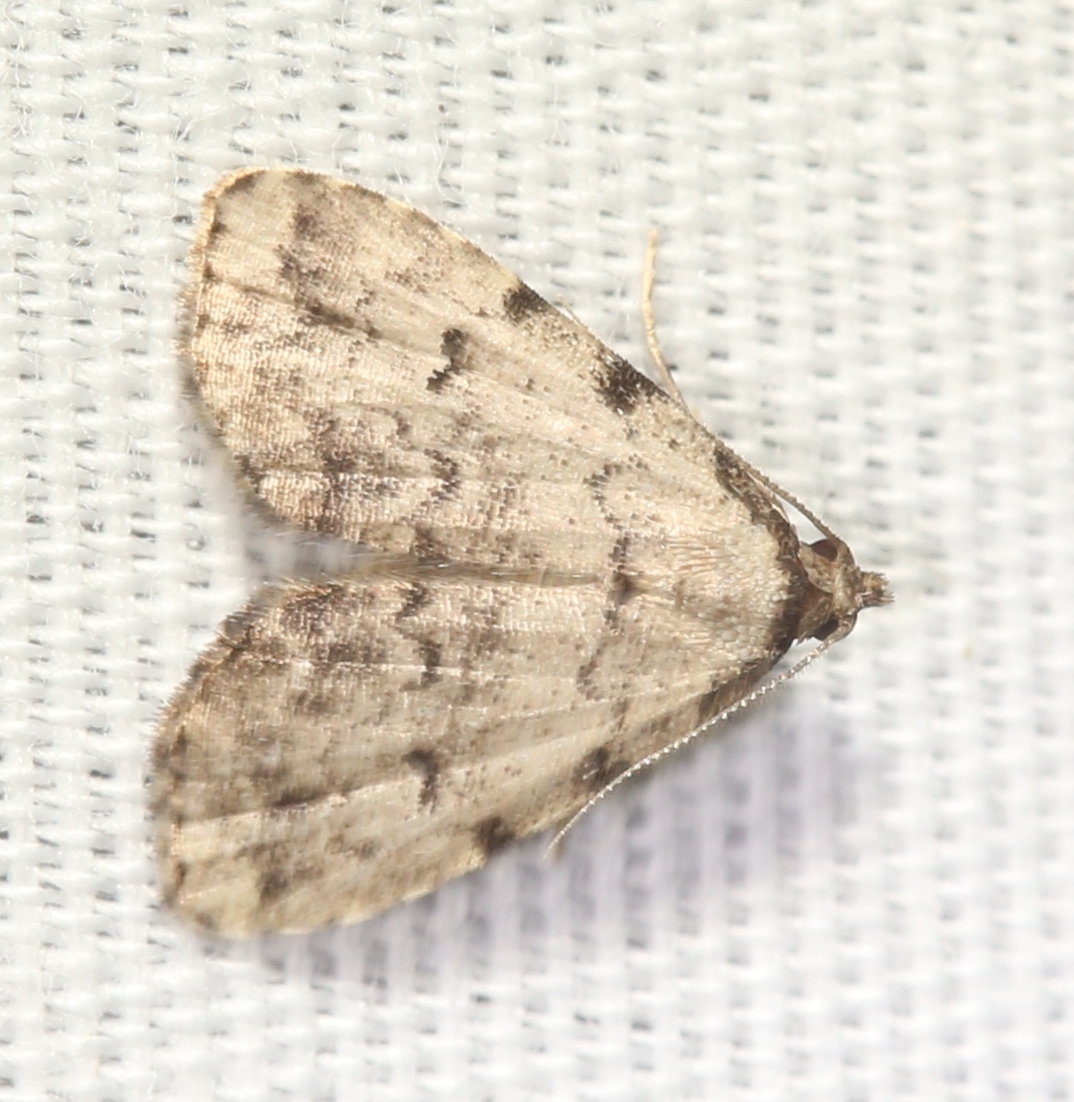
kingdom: Animalia
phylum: Arthropoda
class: Insecta
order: Lepidoptera
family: Erebidae
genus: Dyspyralis
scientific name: Dyspyralis puncticosta
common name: Spot-edged dyspyralis moth
